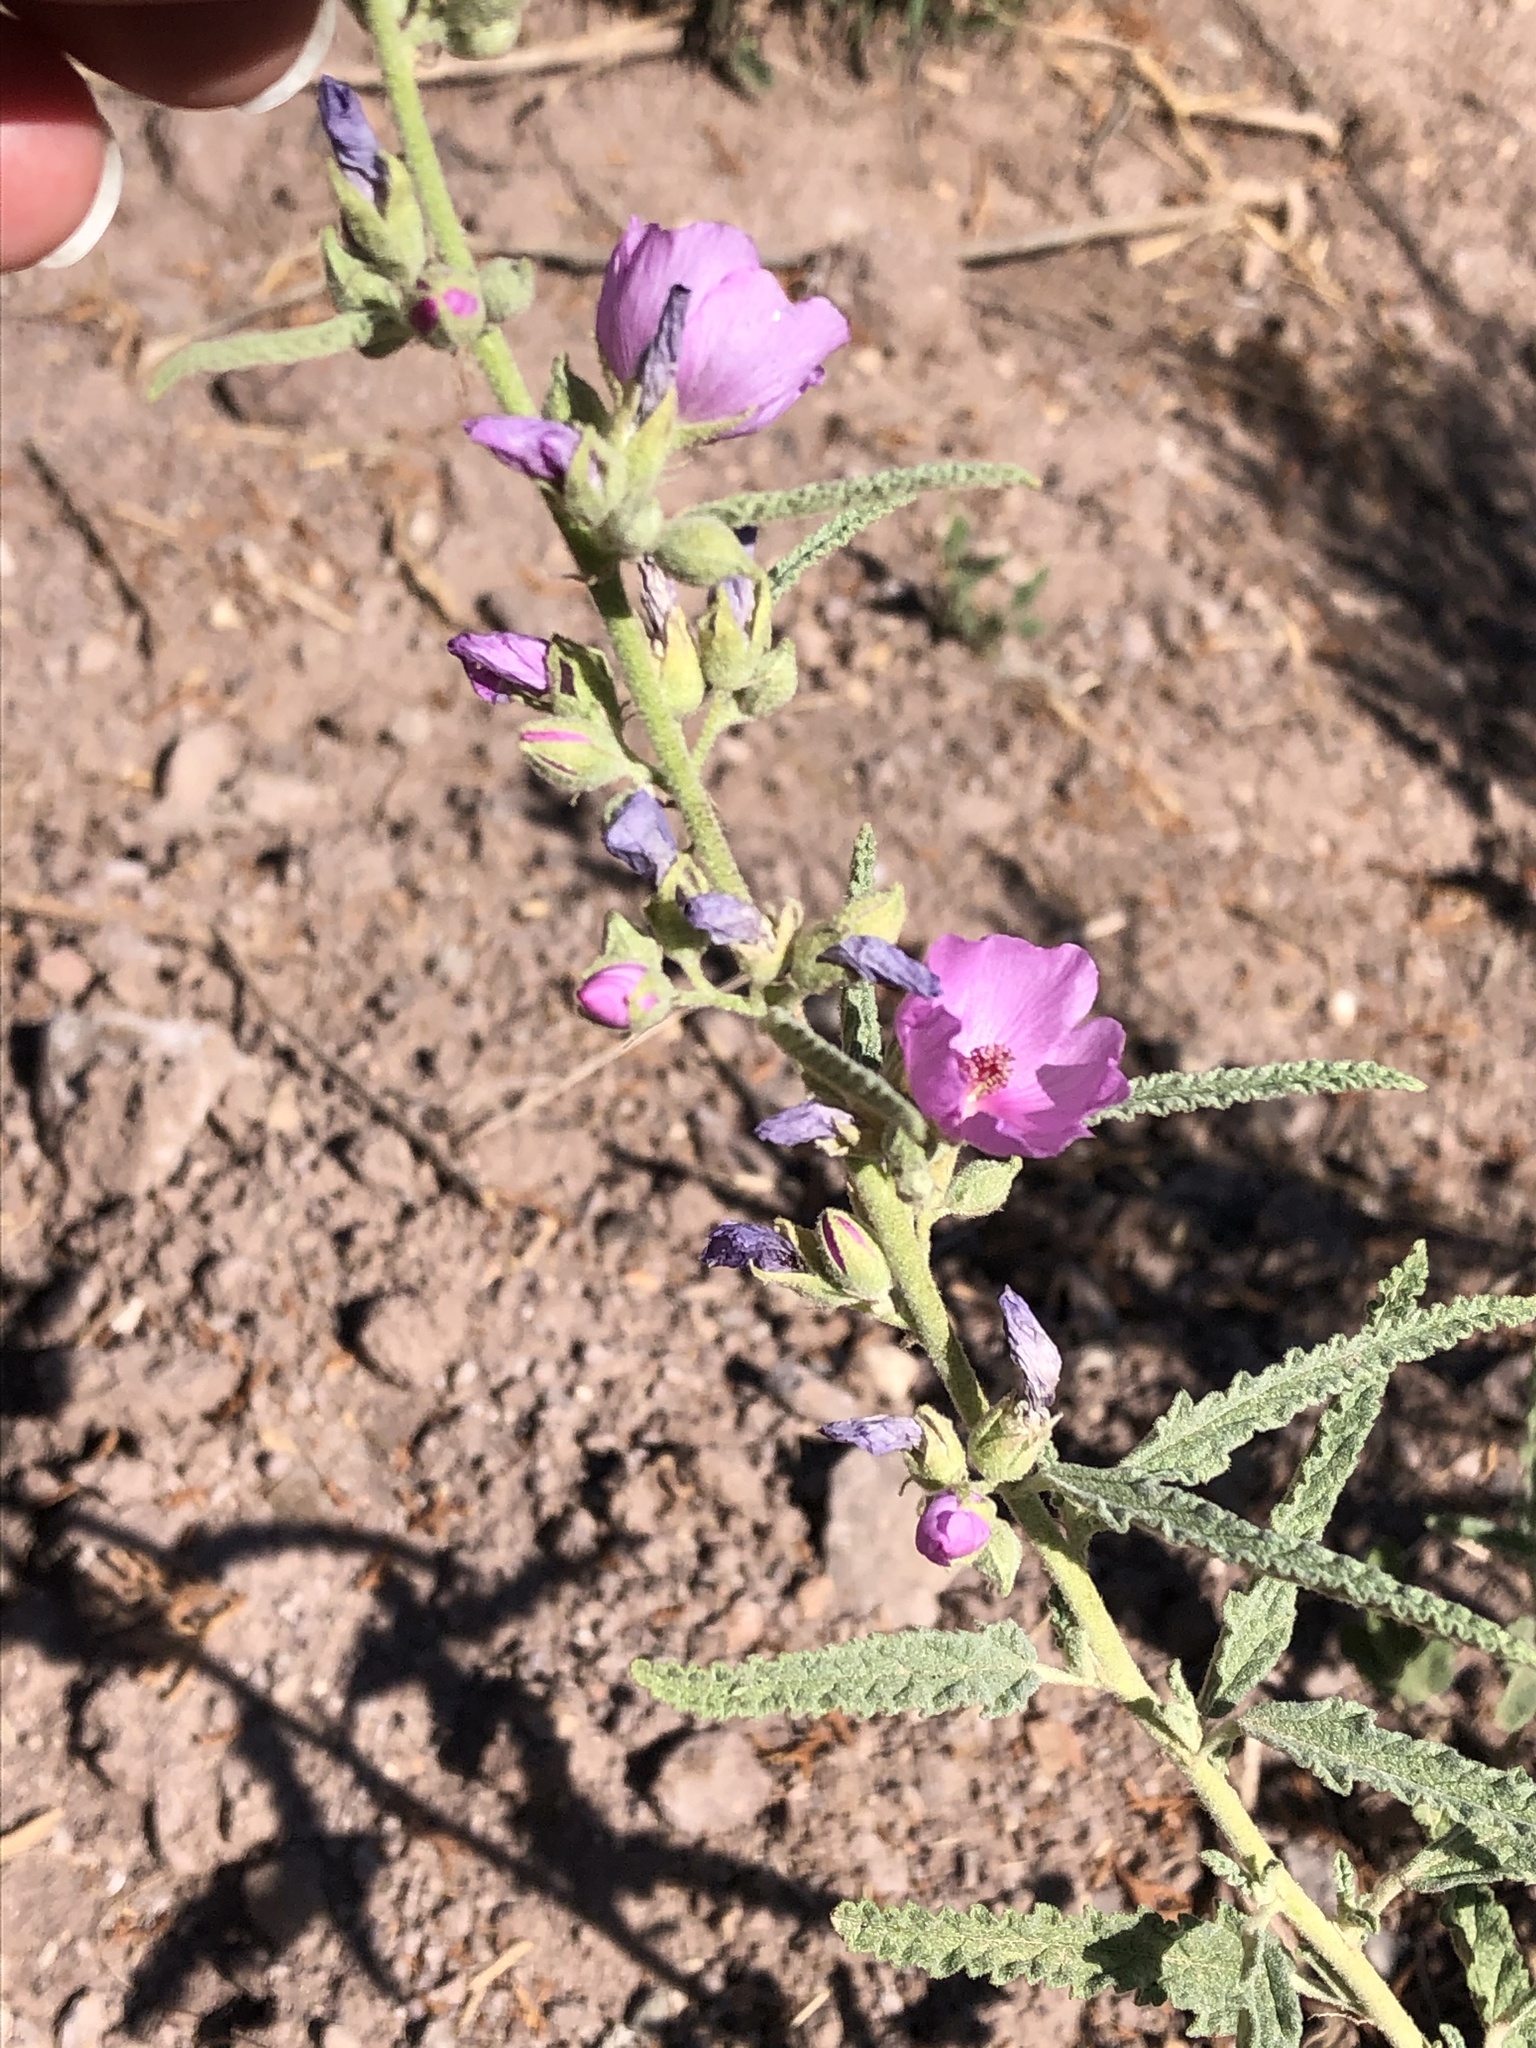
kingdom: Plantae
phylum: Tracheophyta
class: Magnoliopsida
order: Malvales
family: Malvaceae
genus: Sphaeralcea
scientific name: Sphaeralcea angustifolia
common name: Copper globe-mallow
